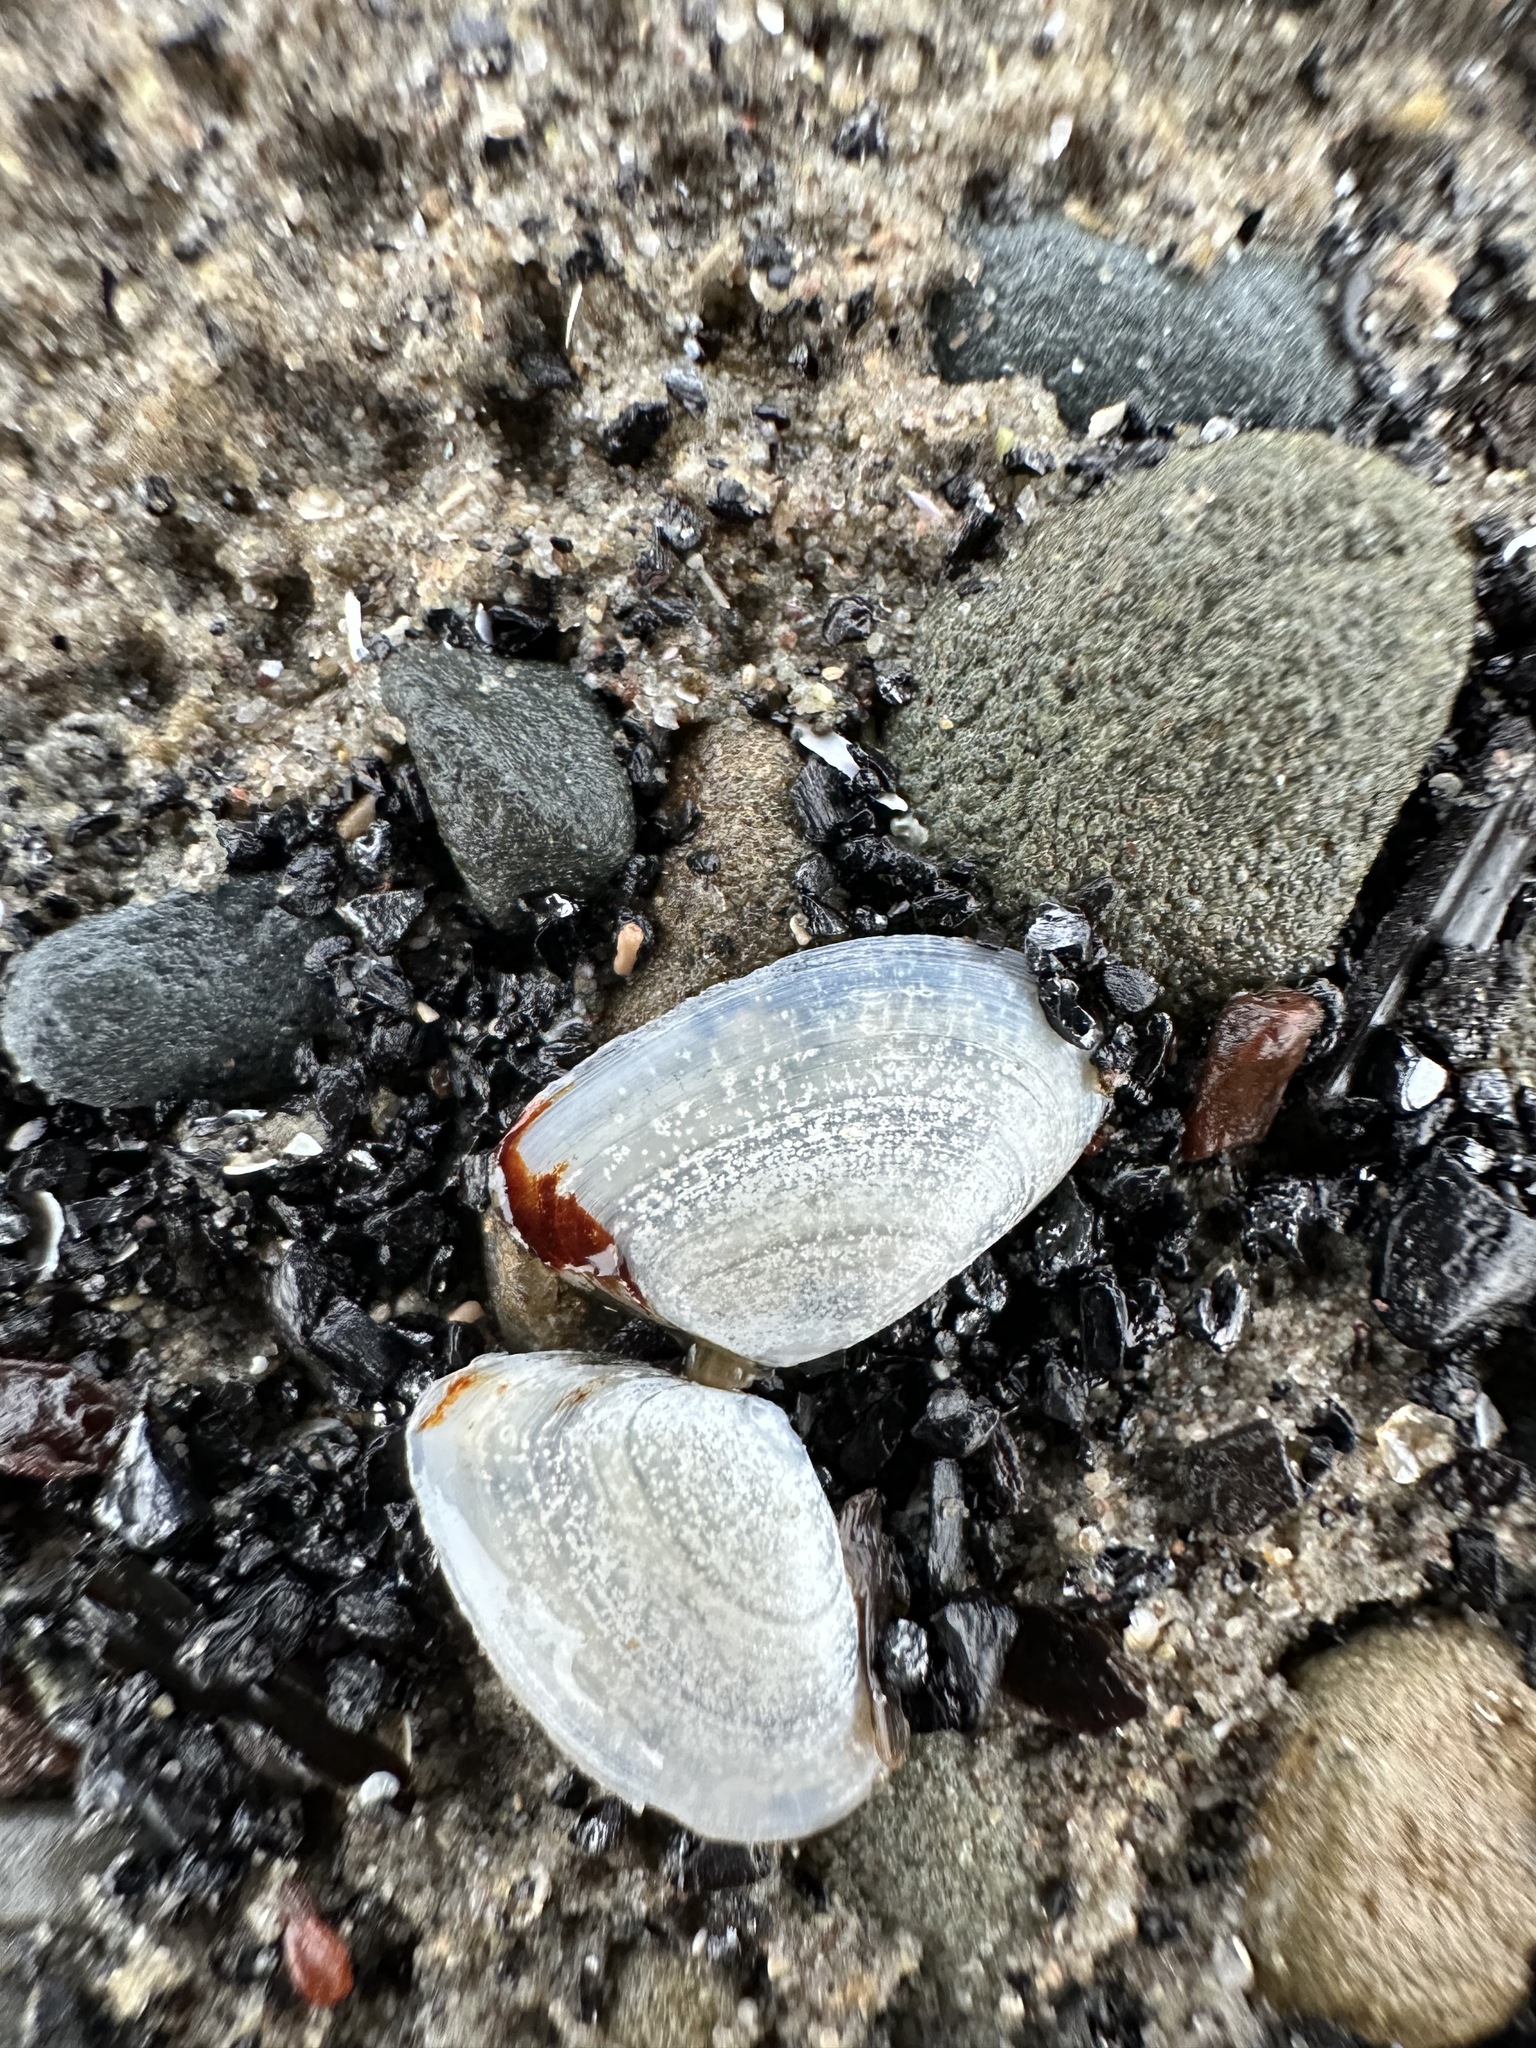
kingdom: Animalia
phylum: Mollusca
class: Bivalvia
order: Cardiida
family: Tellinidae
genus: Ameritella
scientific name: Ameritella agilis
